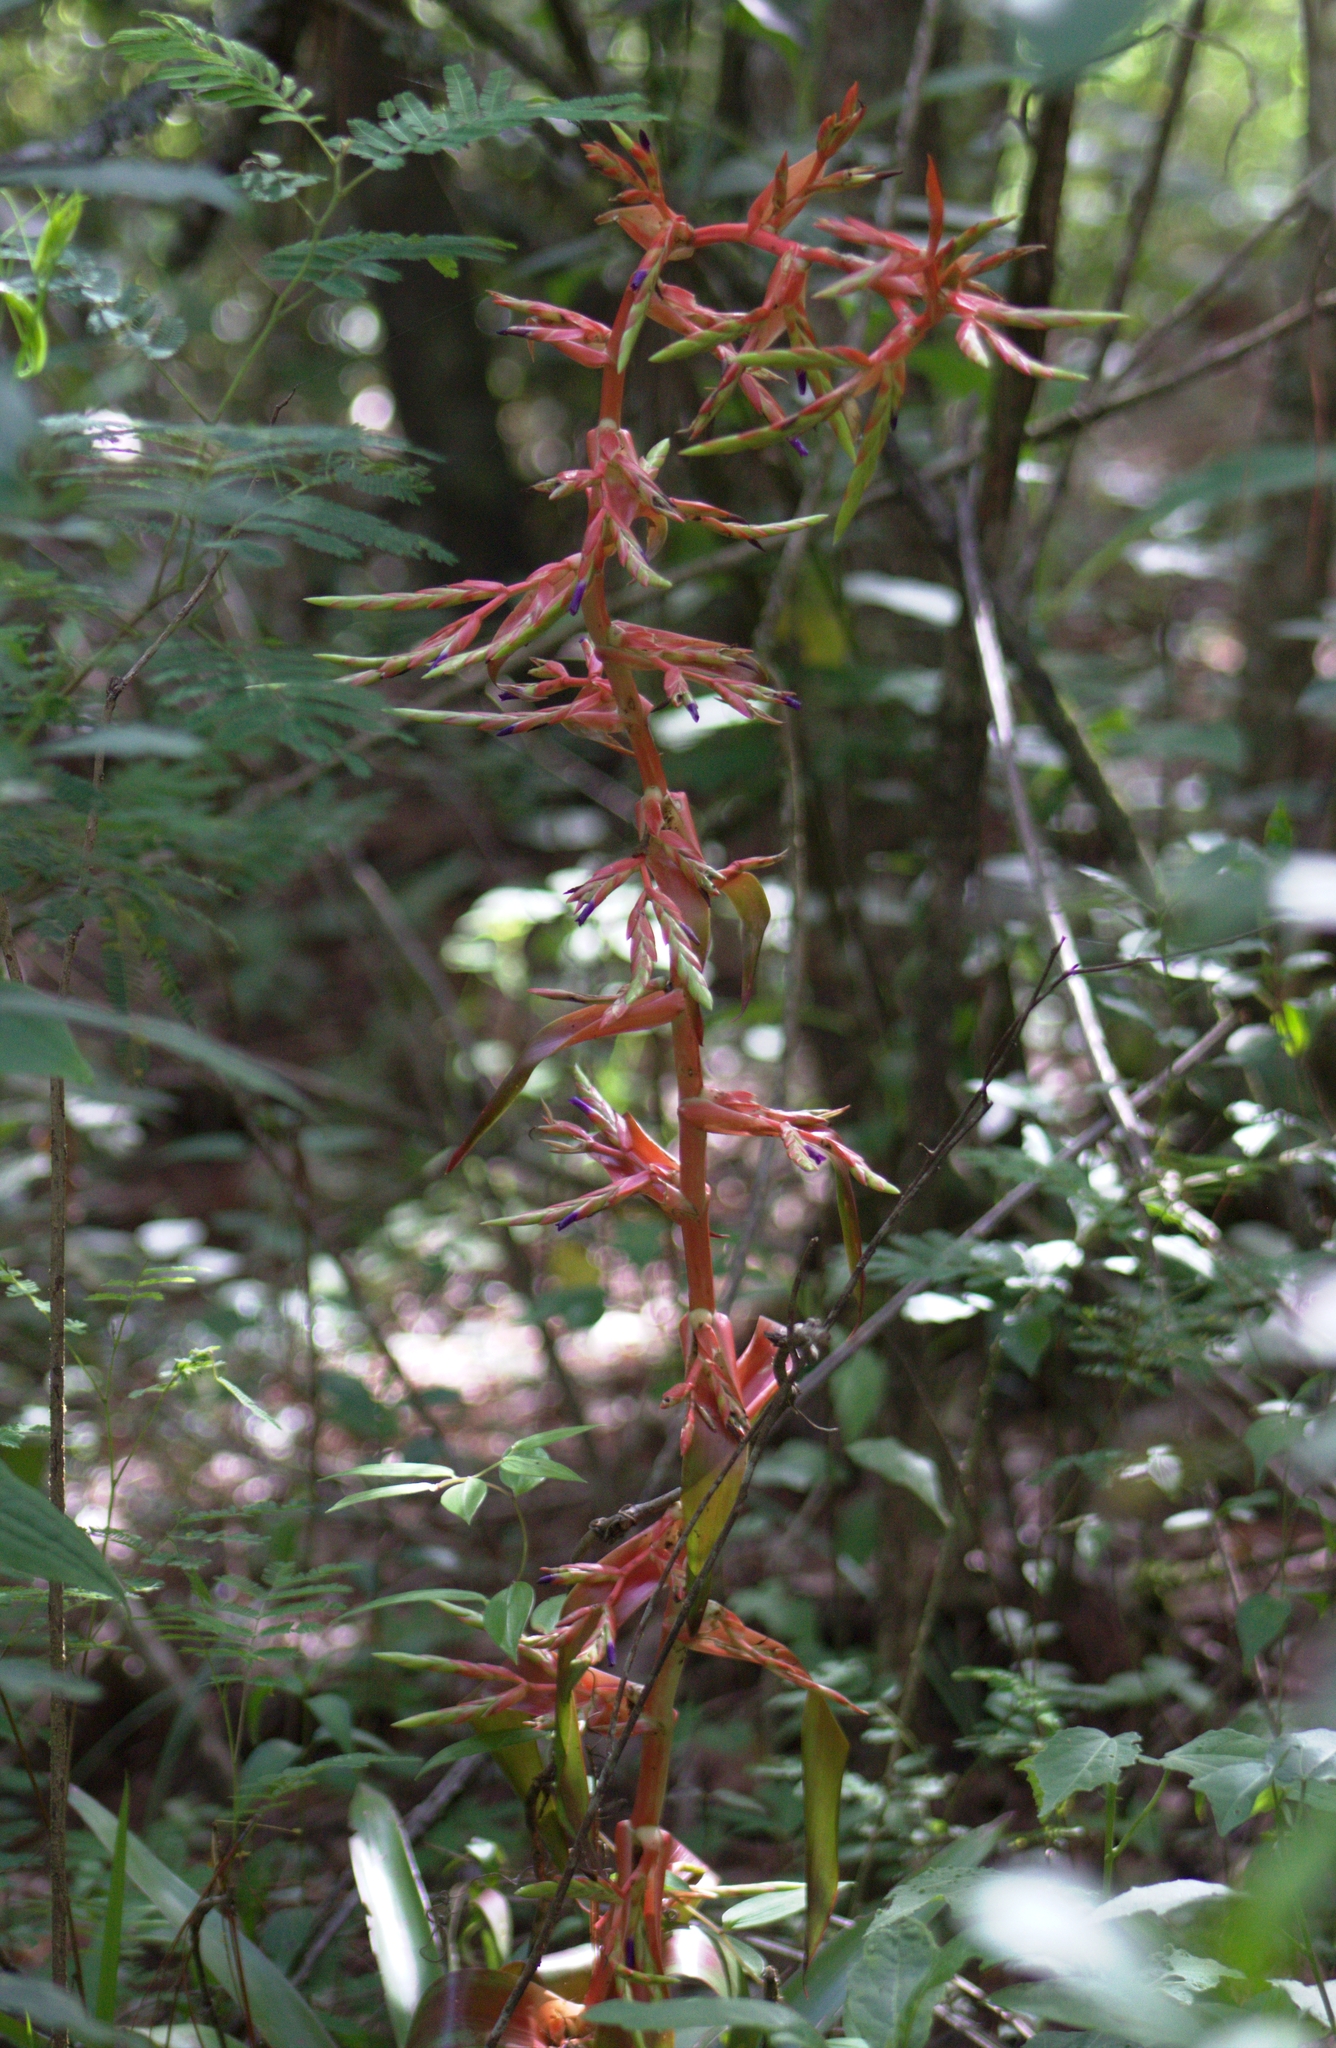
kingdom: Plantae
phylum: Tracheophyta
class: Liliopsida
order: Poales
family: Bromeliaceae
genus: Tillandsia
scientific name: Tillandsia guatemalensis
